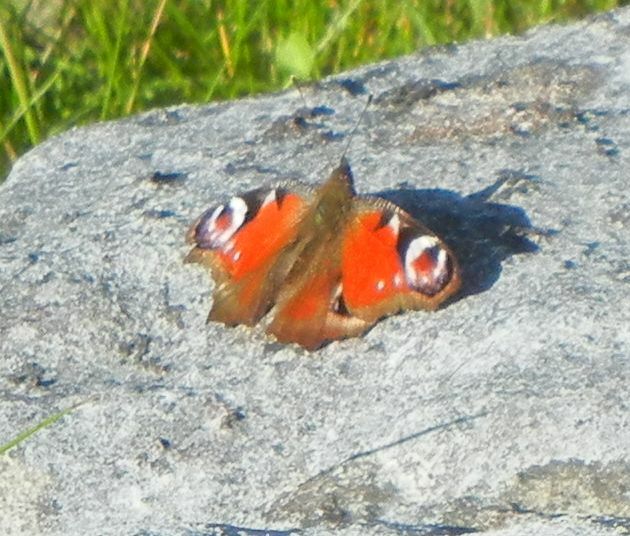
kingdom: Animalia
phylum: Arthropoda
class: Insecta
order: Lepidoptera
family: Nymphalidae
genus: Aglais
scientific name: Aglais io
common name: Peacock
